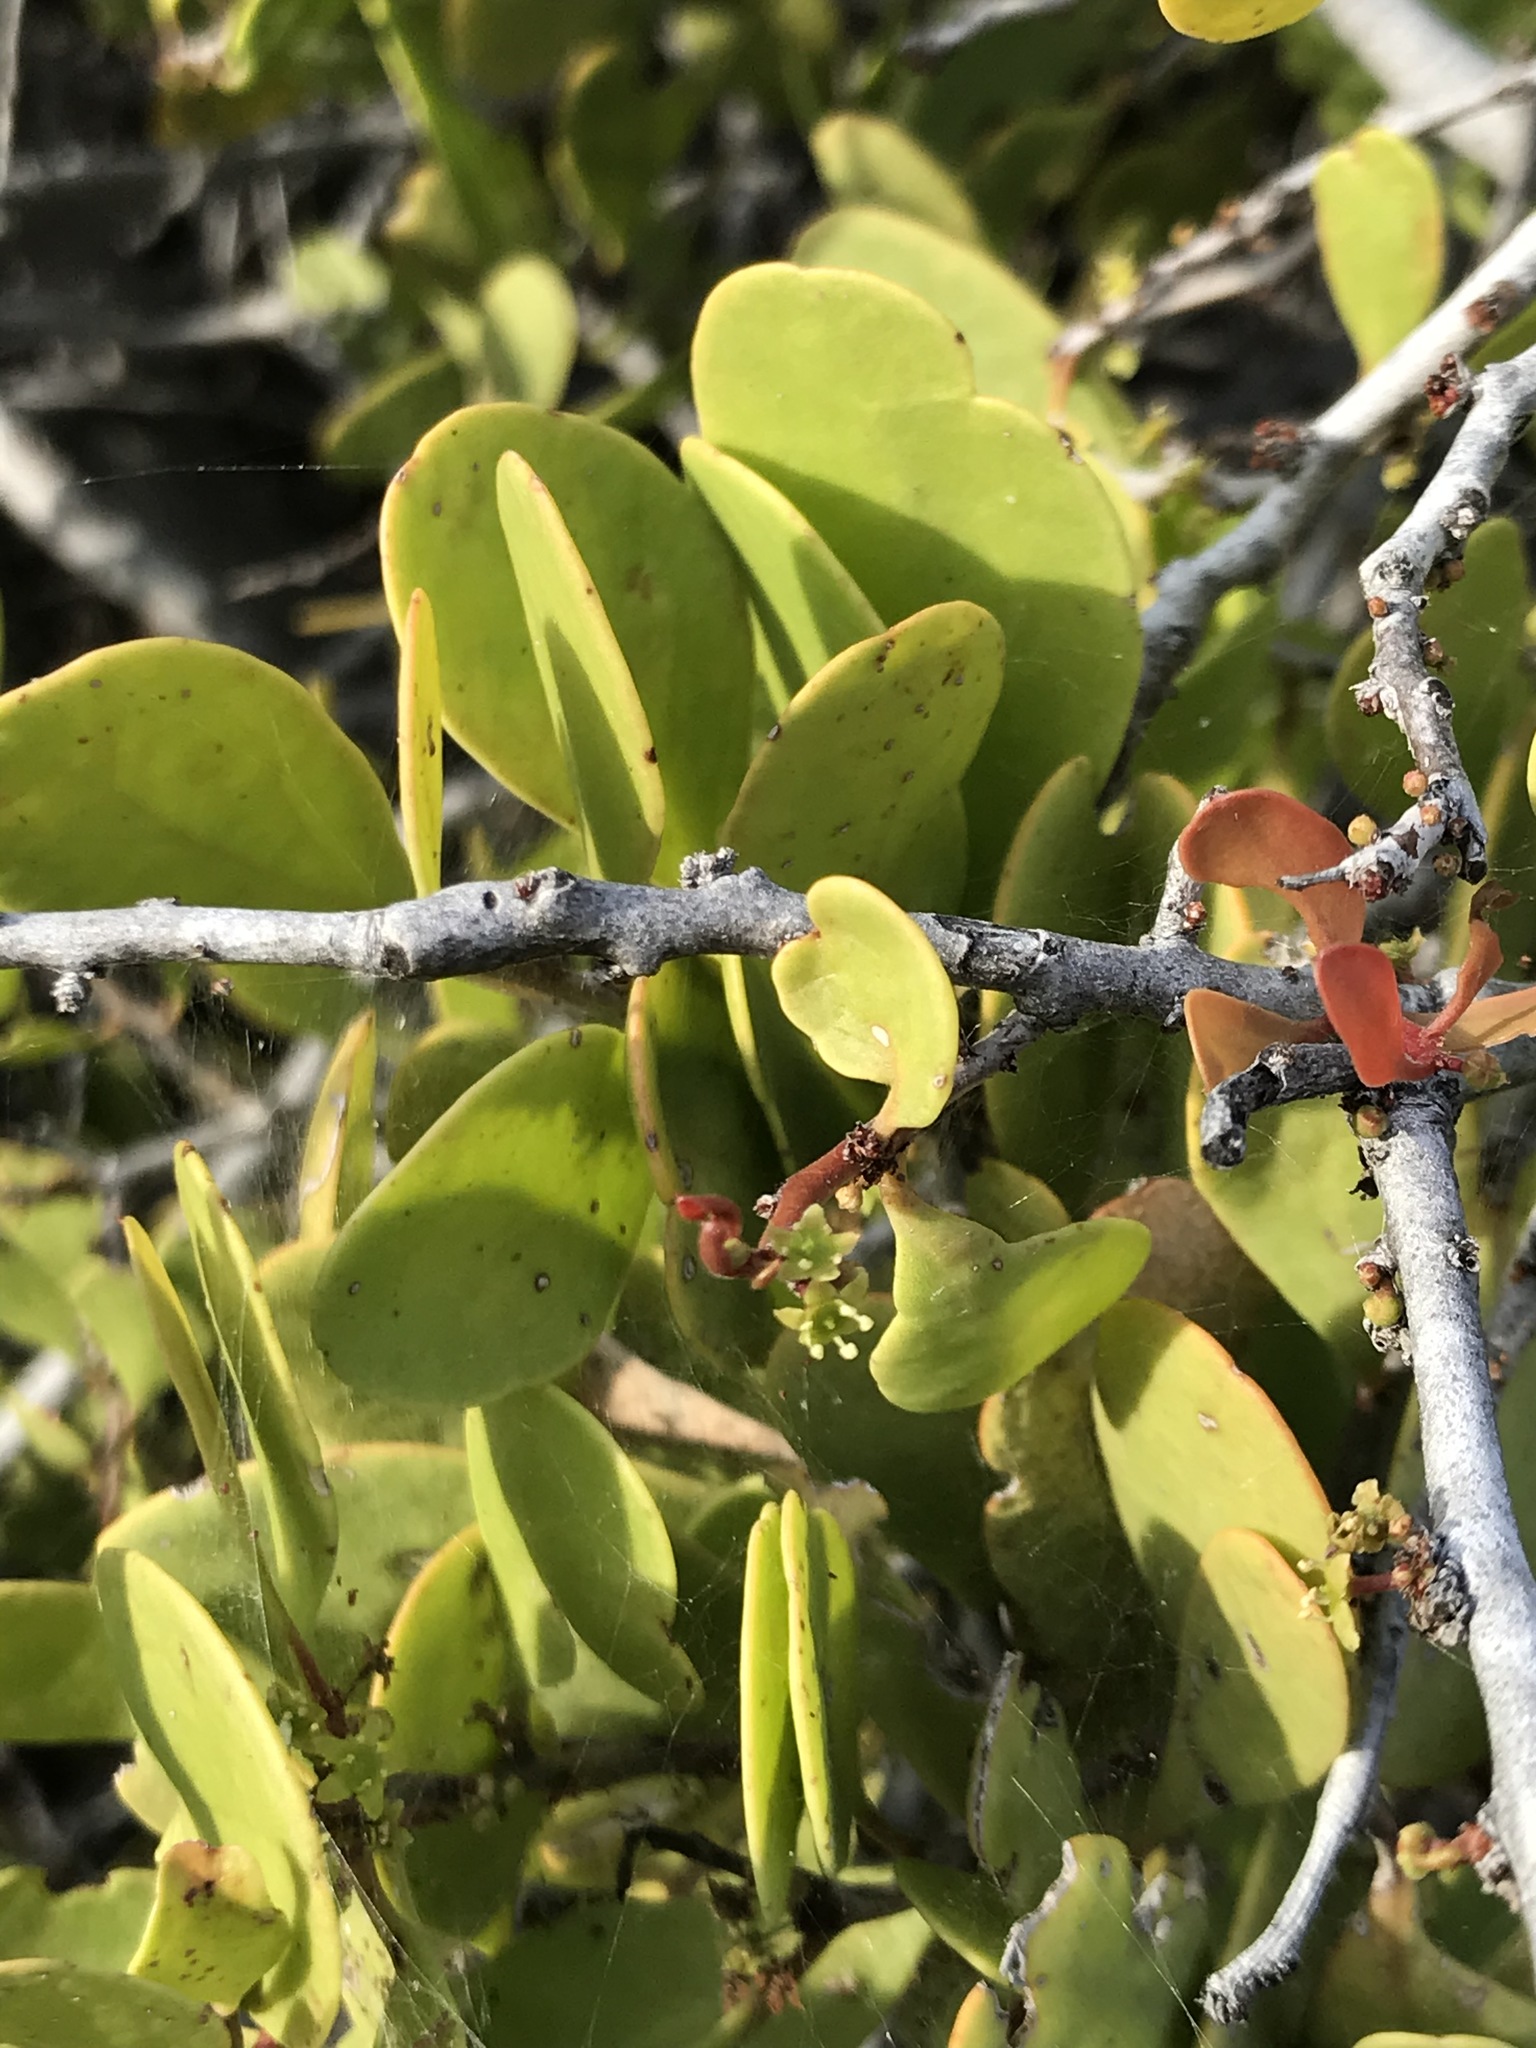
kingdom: Plantae
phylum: Tracheophyta
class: Magnoliopsida
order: Celastrales
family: Celastraceae
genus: Tricerma
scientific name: Tricerma phyllanthoides
